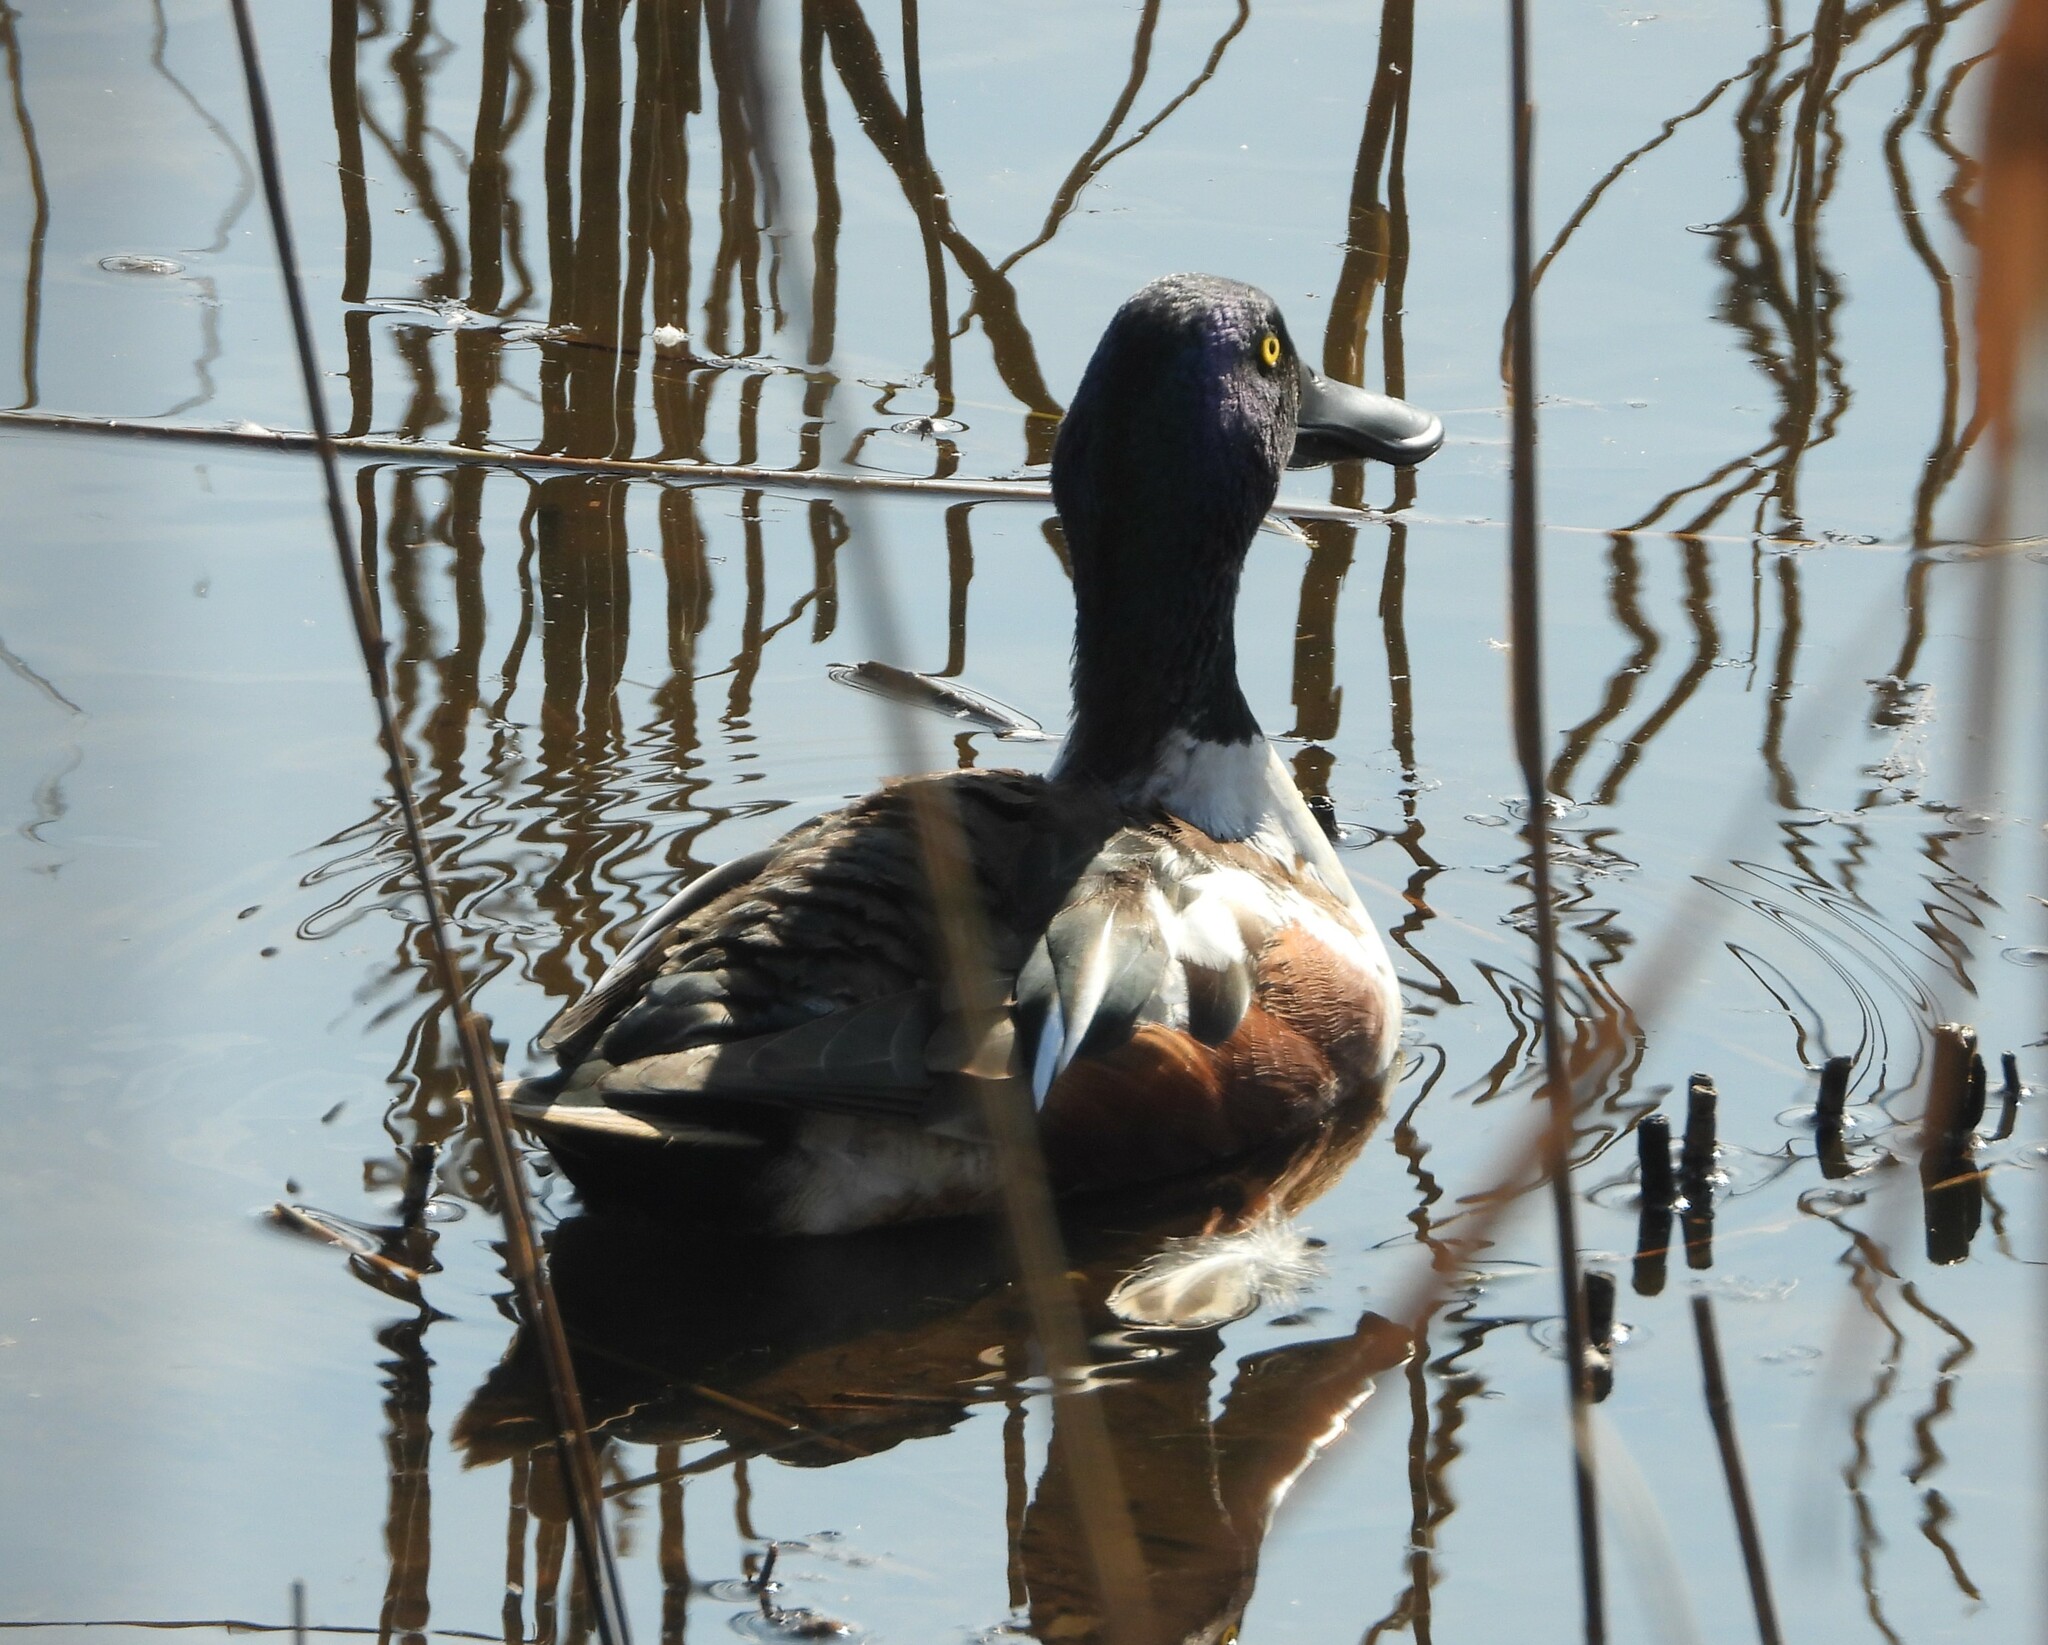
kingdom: Animalia
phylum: Chordata
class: Aves
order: Anseriformes
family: Anatidae
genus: Spatula
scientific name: Spatula clypeata
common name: Northern shoveler
